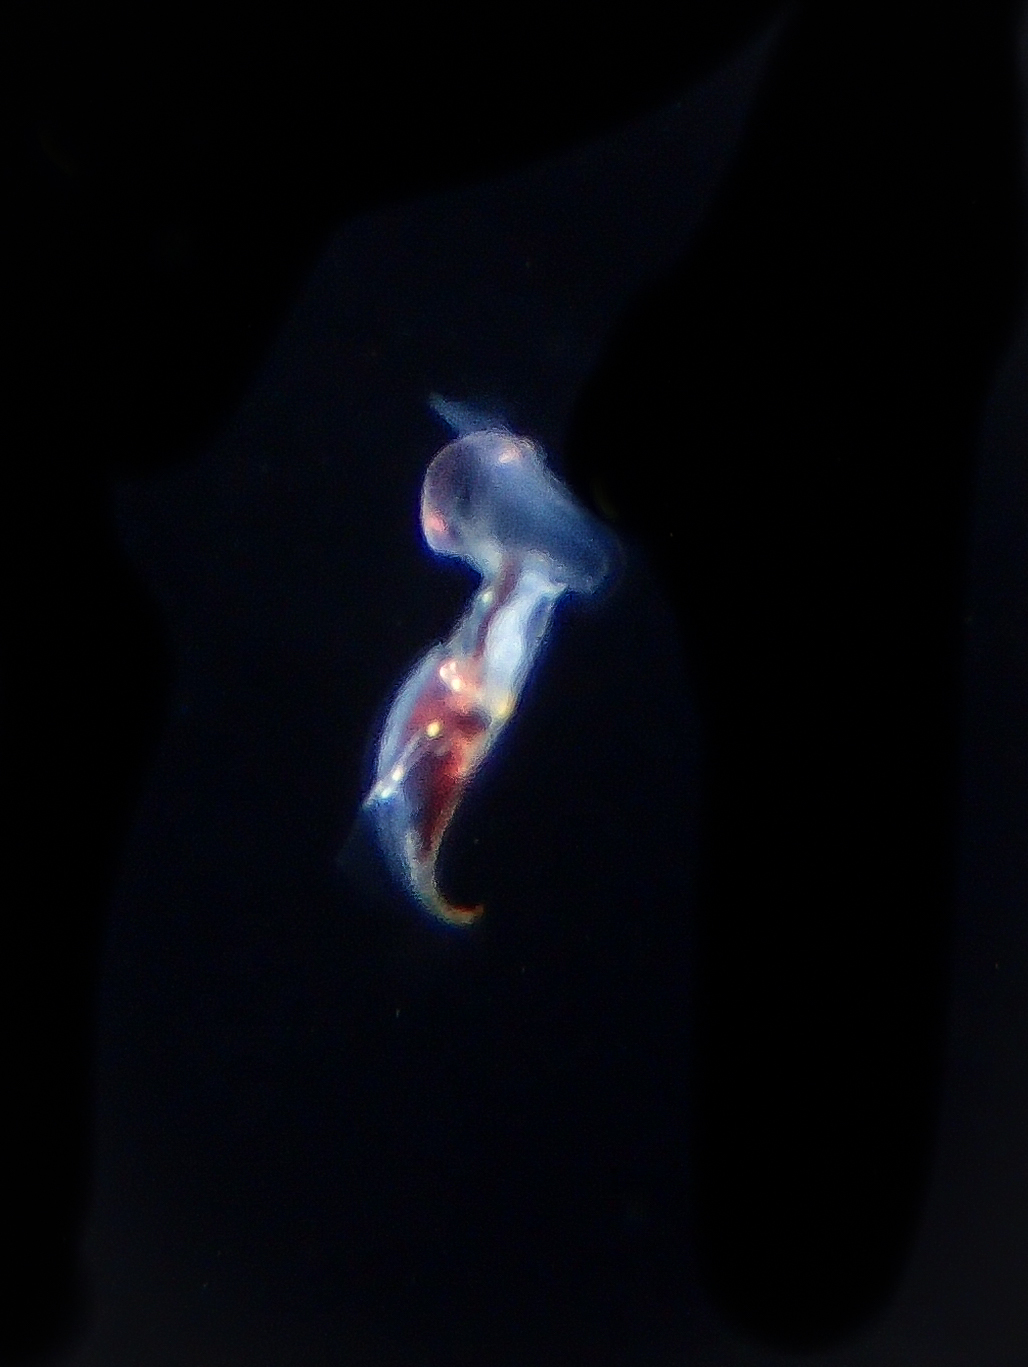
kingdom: Animalia
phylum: Mollusca
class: Gastropoda
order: Pteropoda
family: Cavoliniidae
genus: Cavolinia
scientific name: Cavolinia inflexa
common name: Inflexed cavoline
